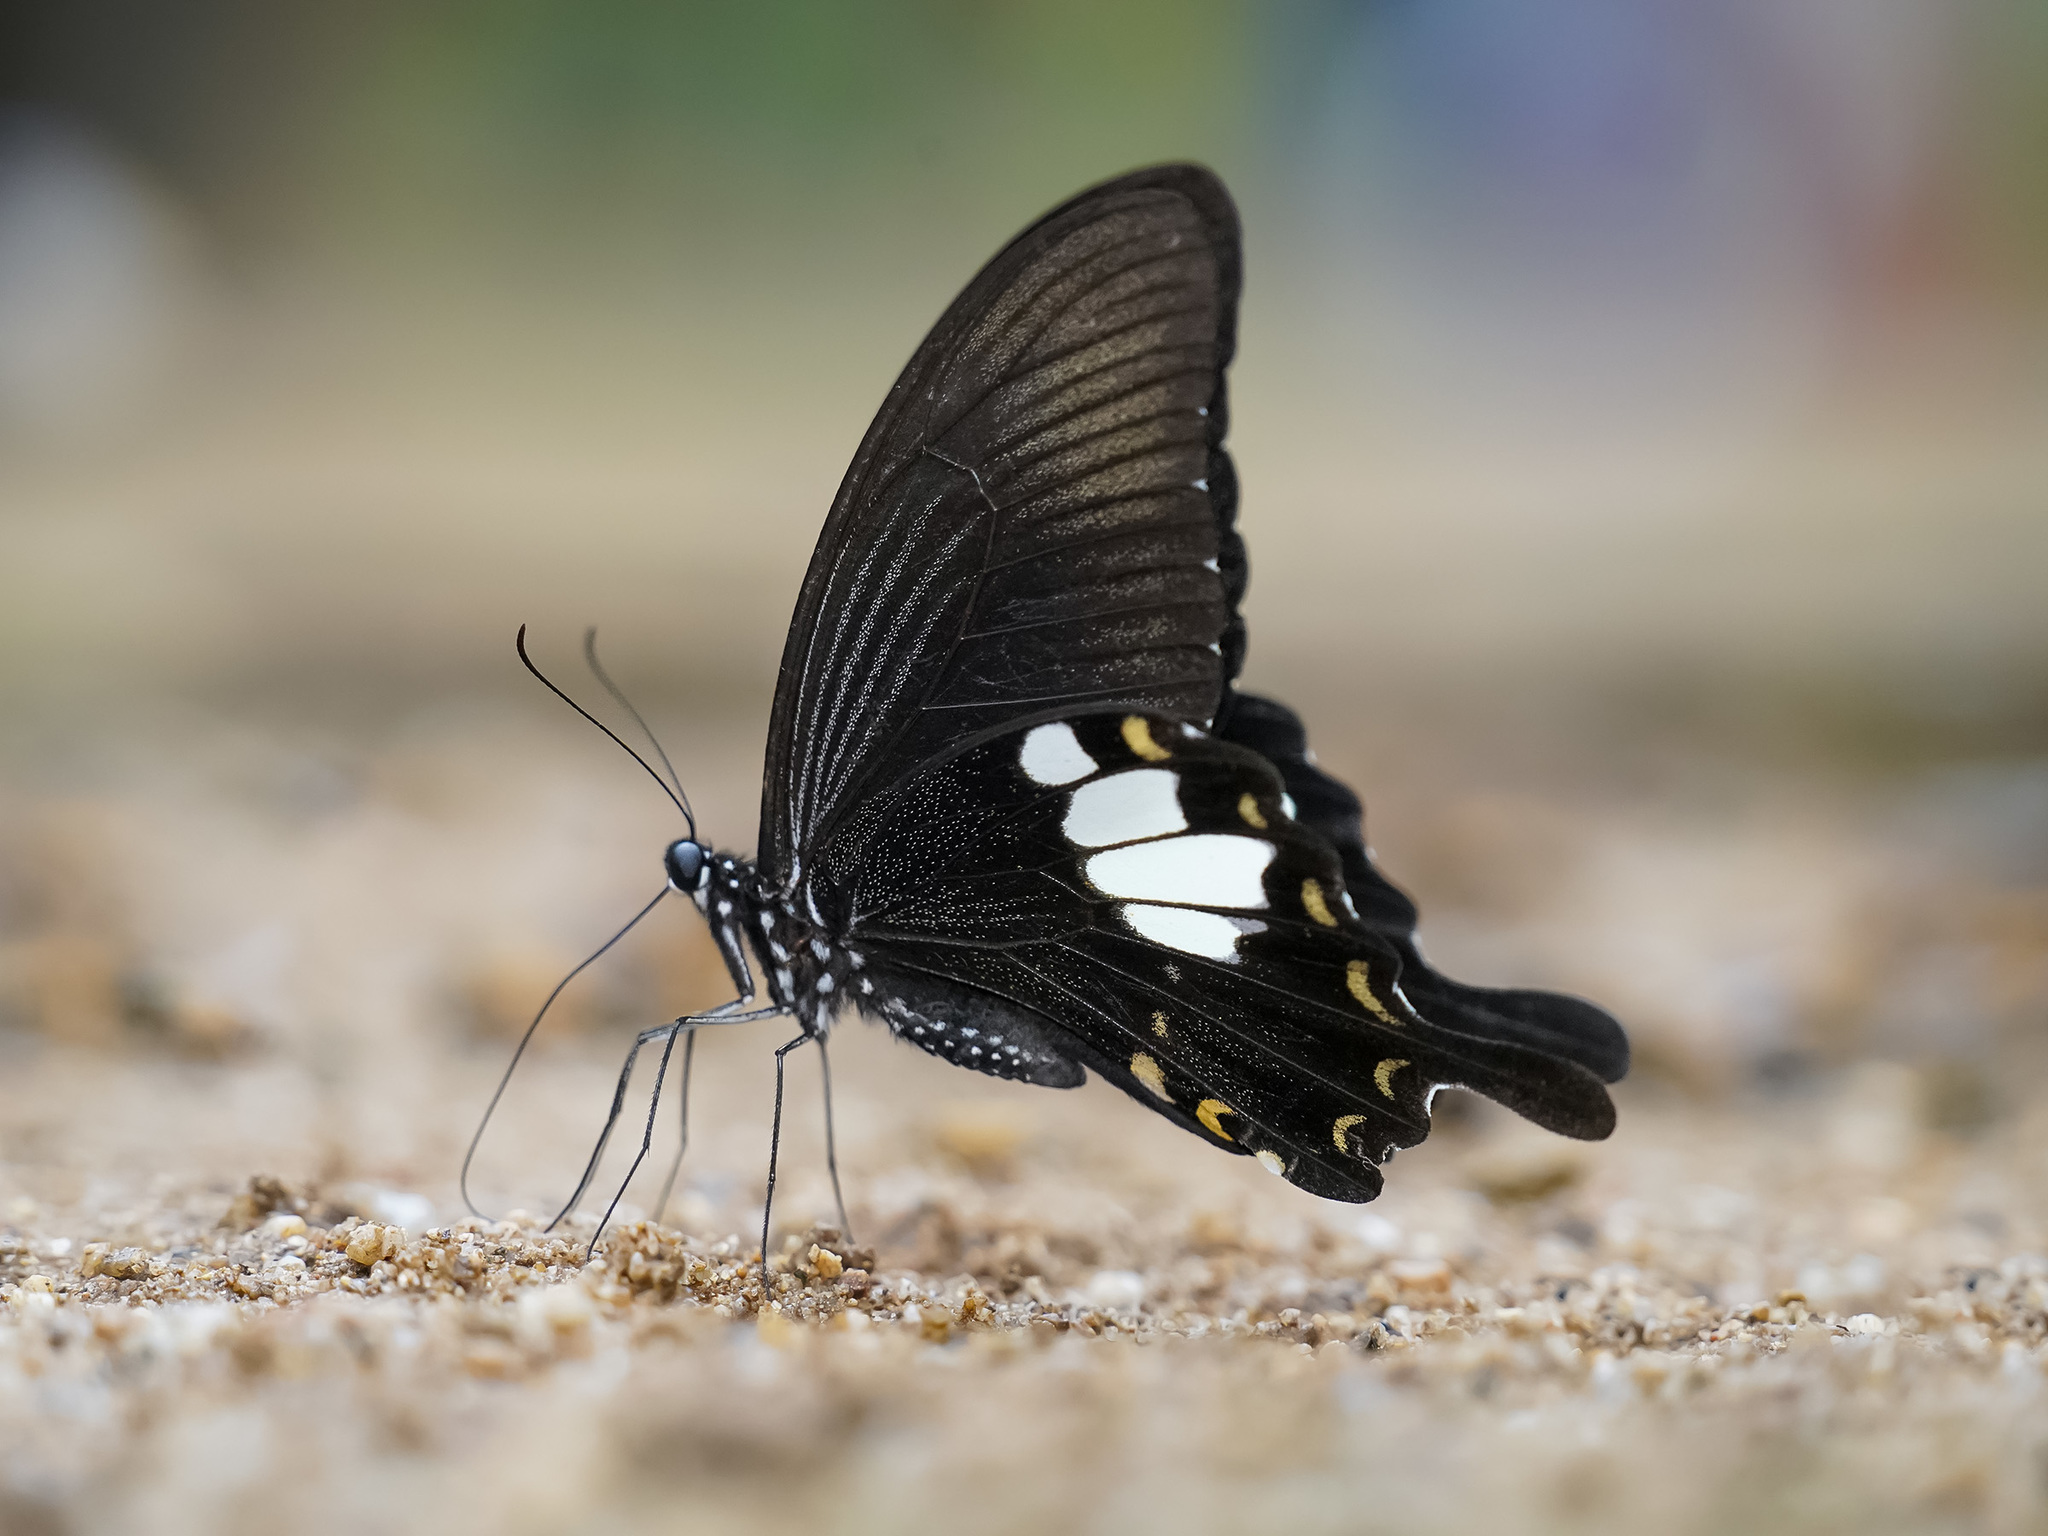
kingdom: Animalia
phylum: Arthropoda
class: Insecta
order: Lepidoptera
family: Papilionidae
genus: Papilio
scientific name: Papilio nephelus
